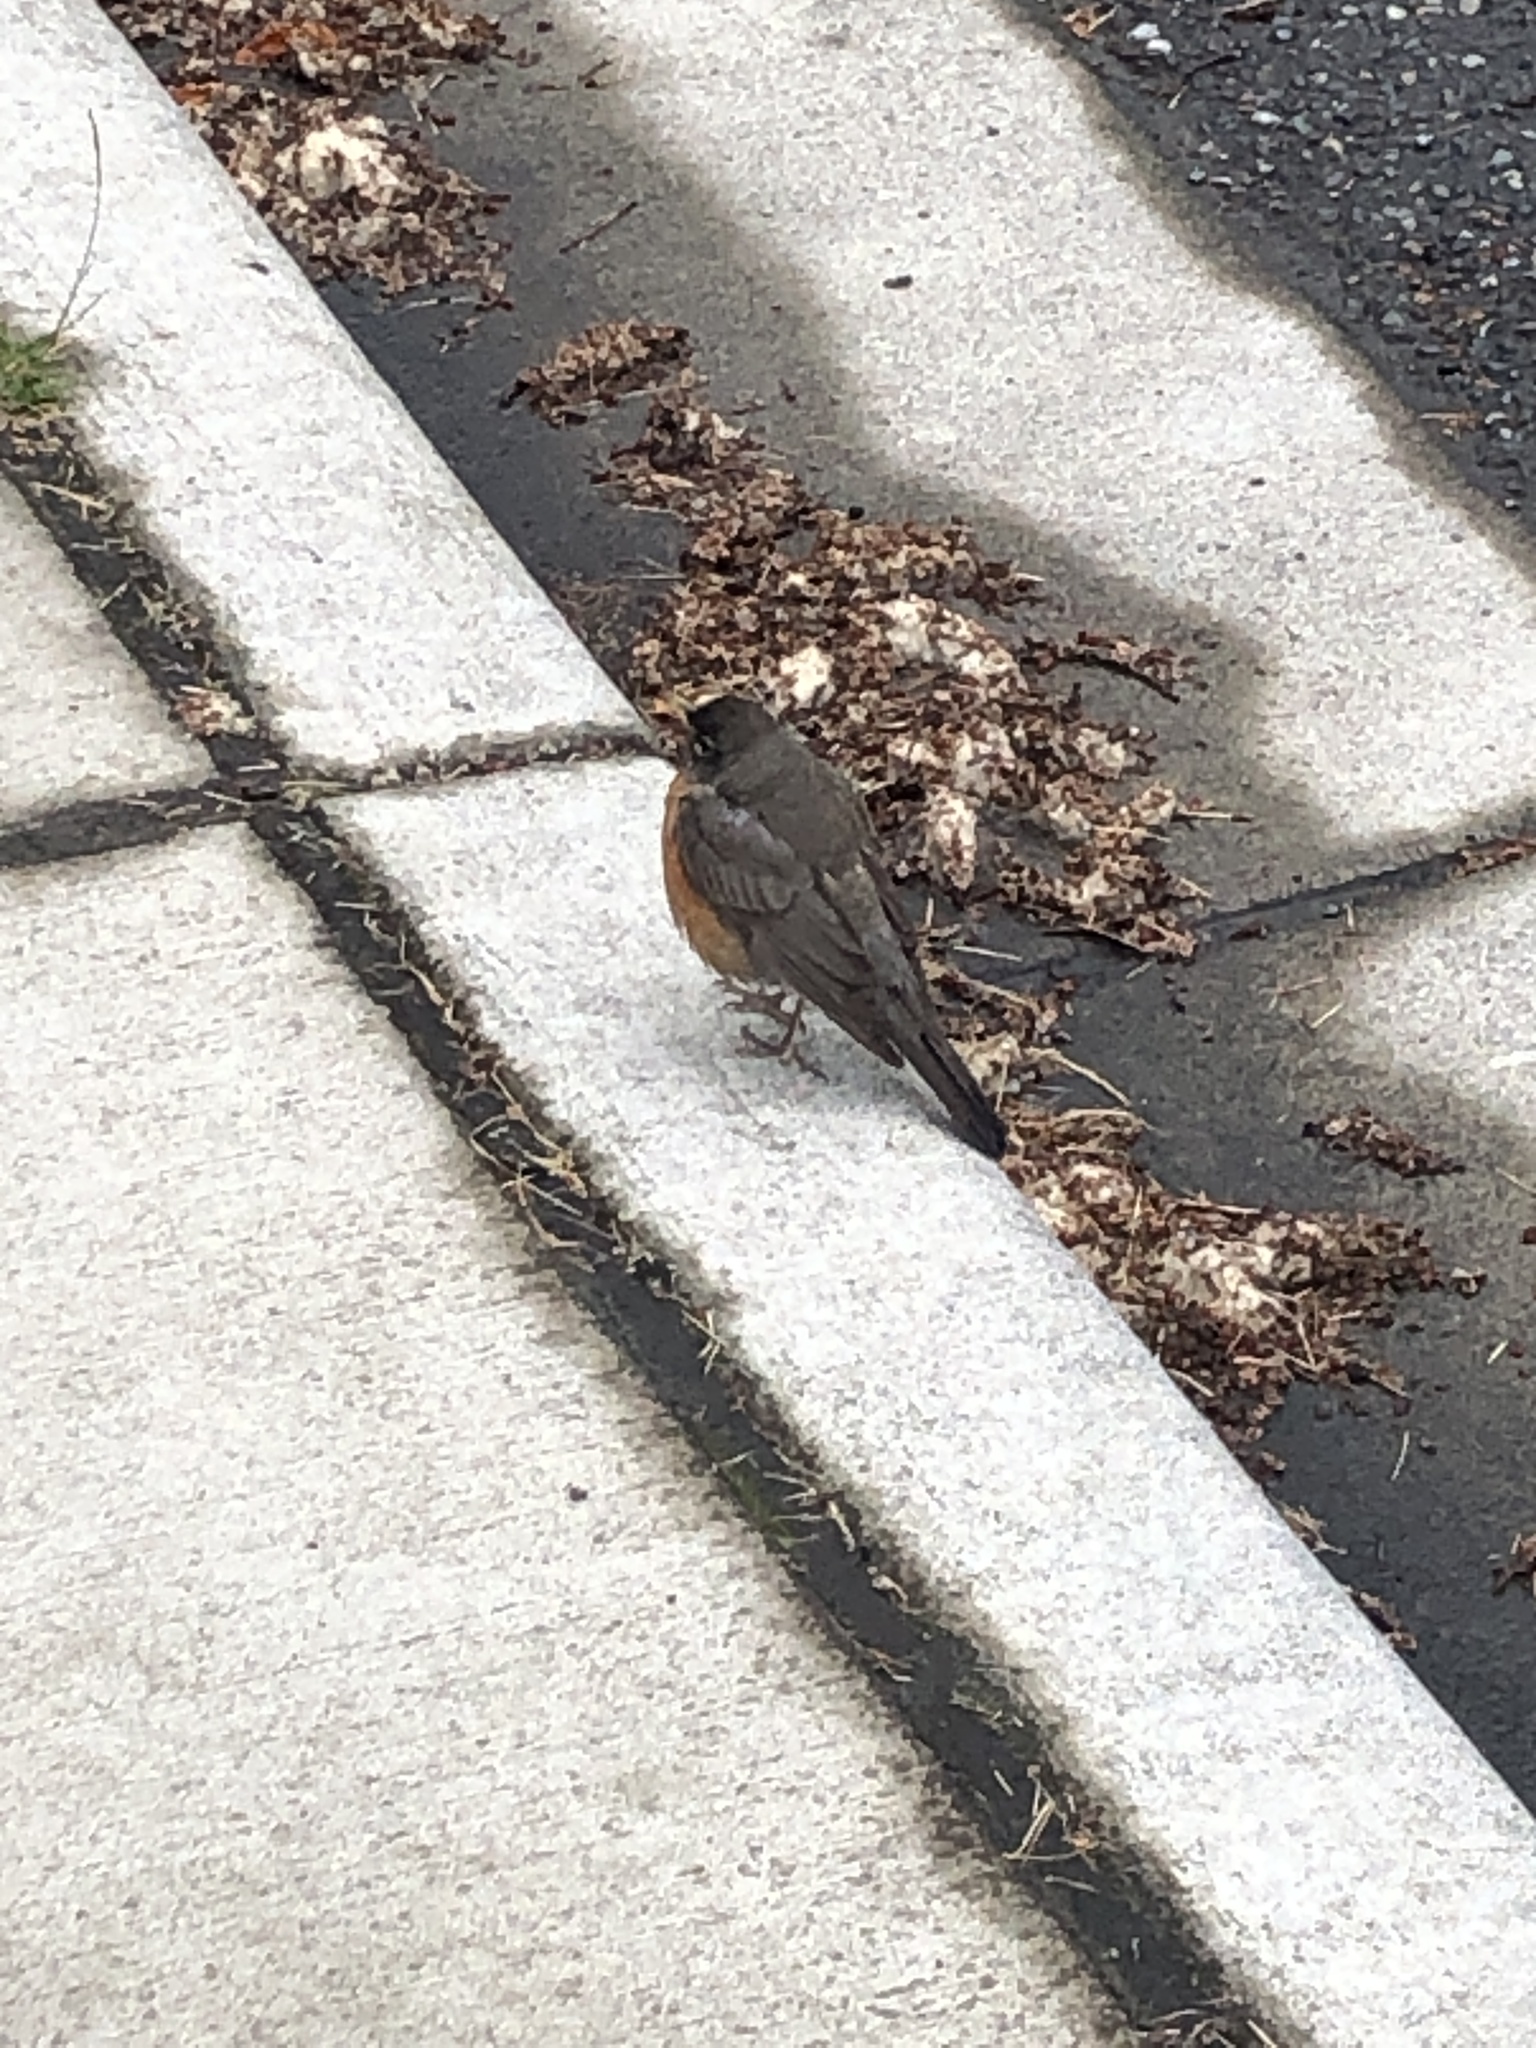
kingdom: Animalia
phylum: Chordata
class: Aves
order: Passeriformes
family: Turdidae
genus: Turdus
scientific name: Turdus migratorius
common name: American robin
